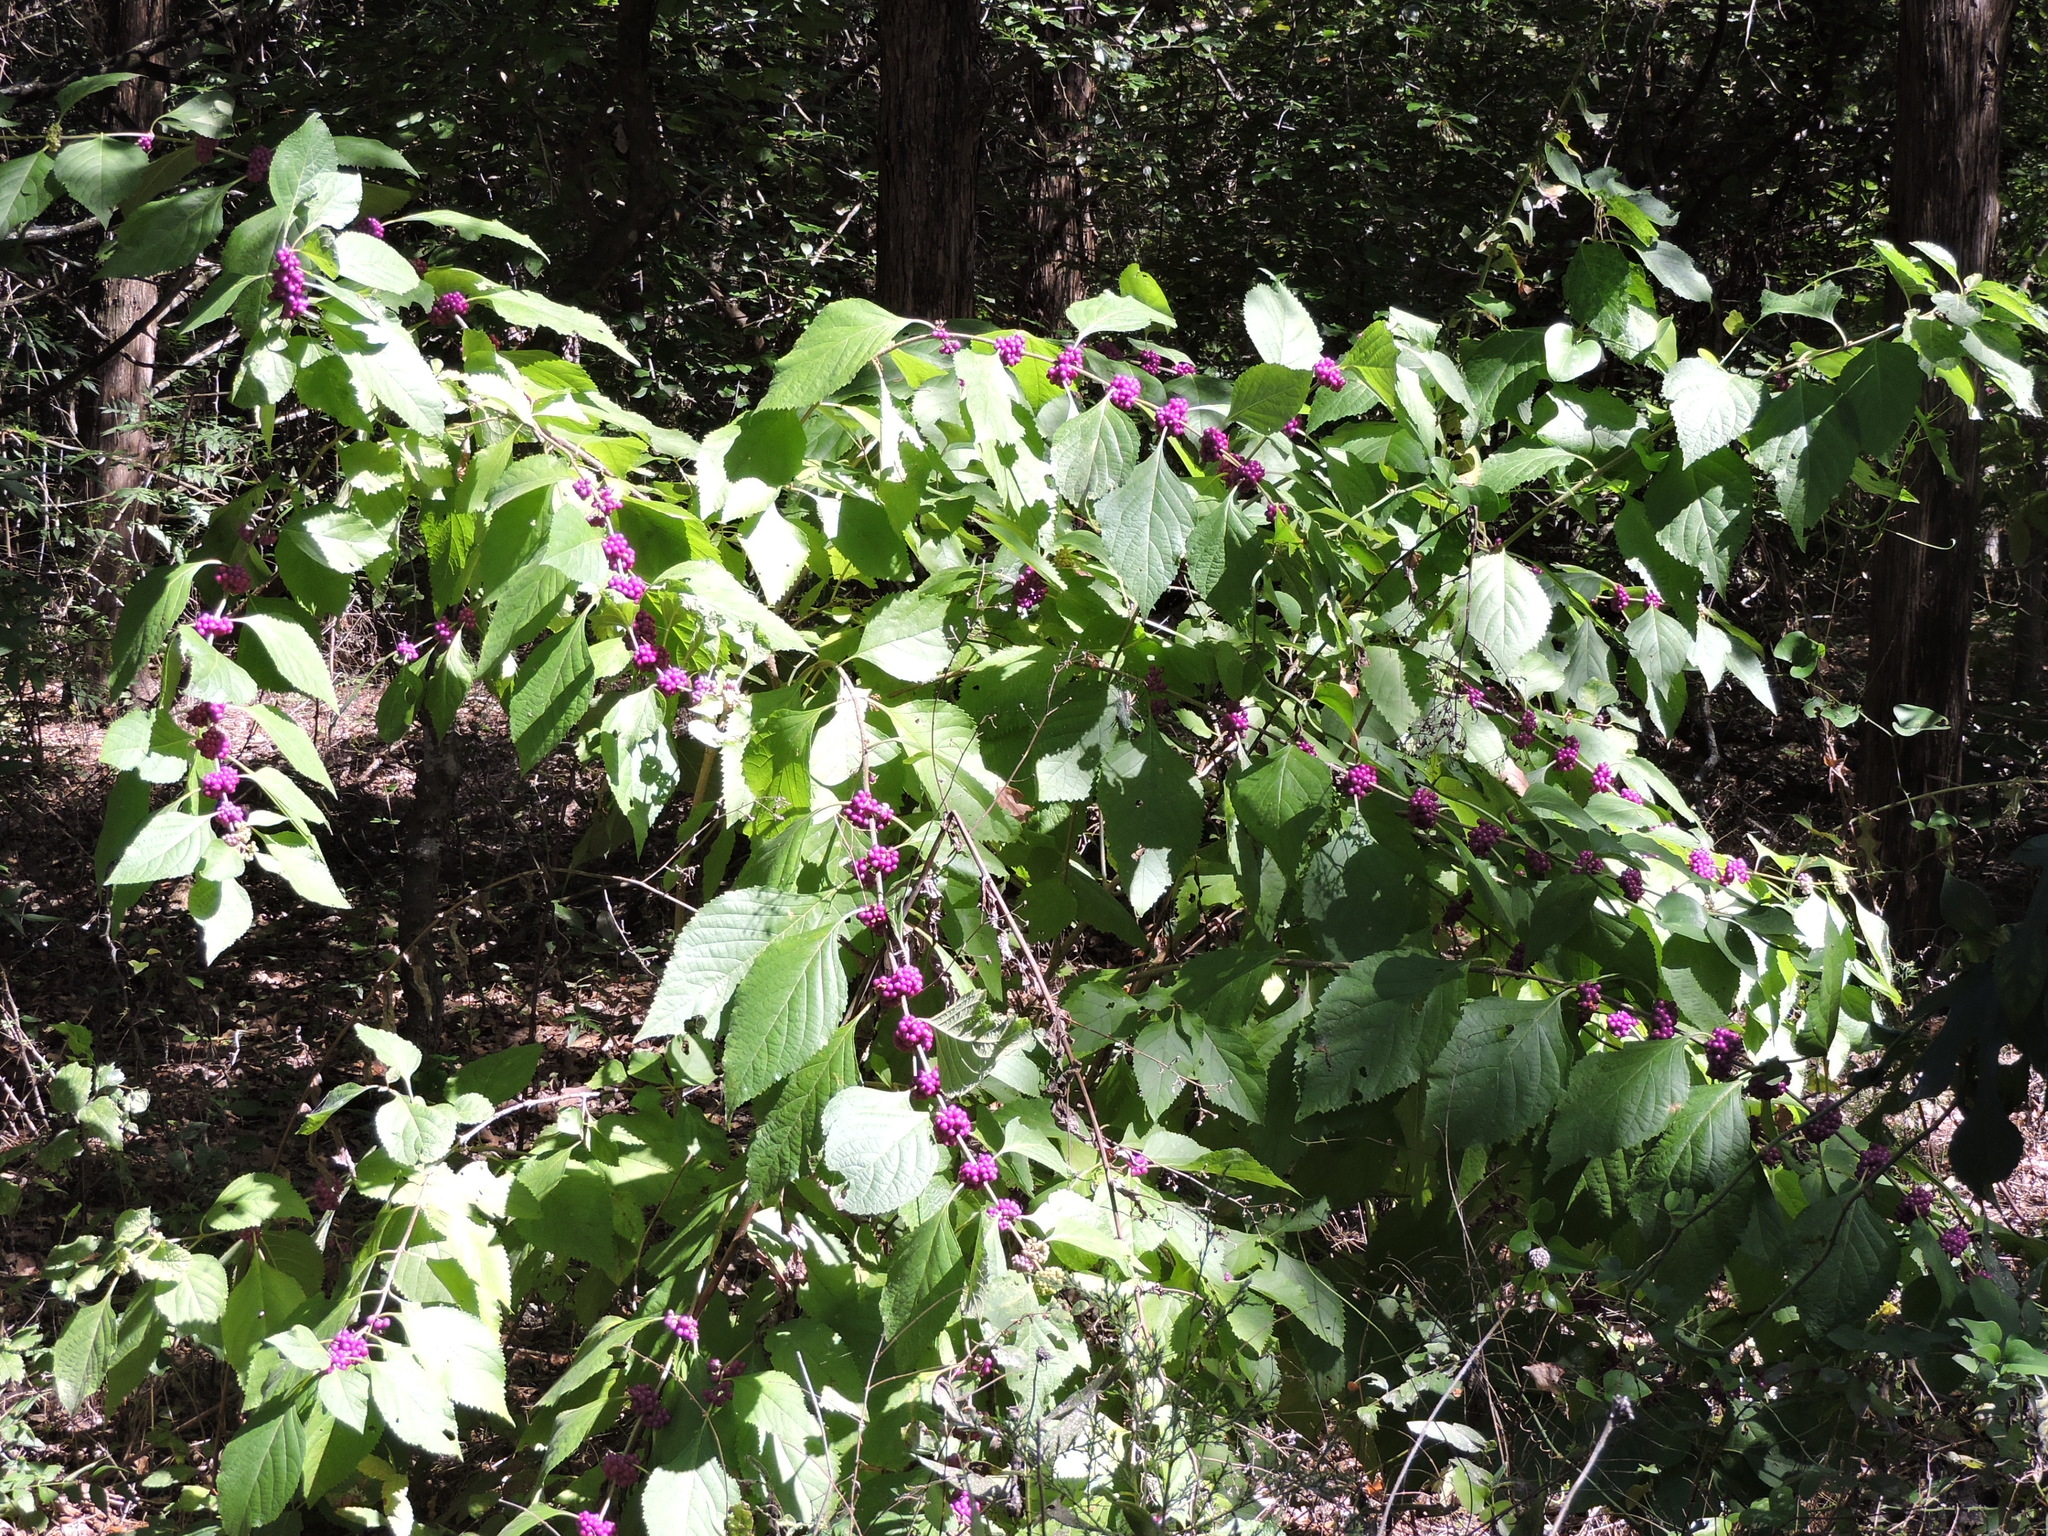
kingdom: Plantae
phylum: Tracheophyta
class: Magnoliopsida
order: Lamiales
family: Lamiaceae
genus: Callicarpa
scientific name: Callicarpa americana
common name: American beautyberry
